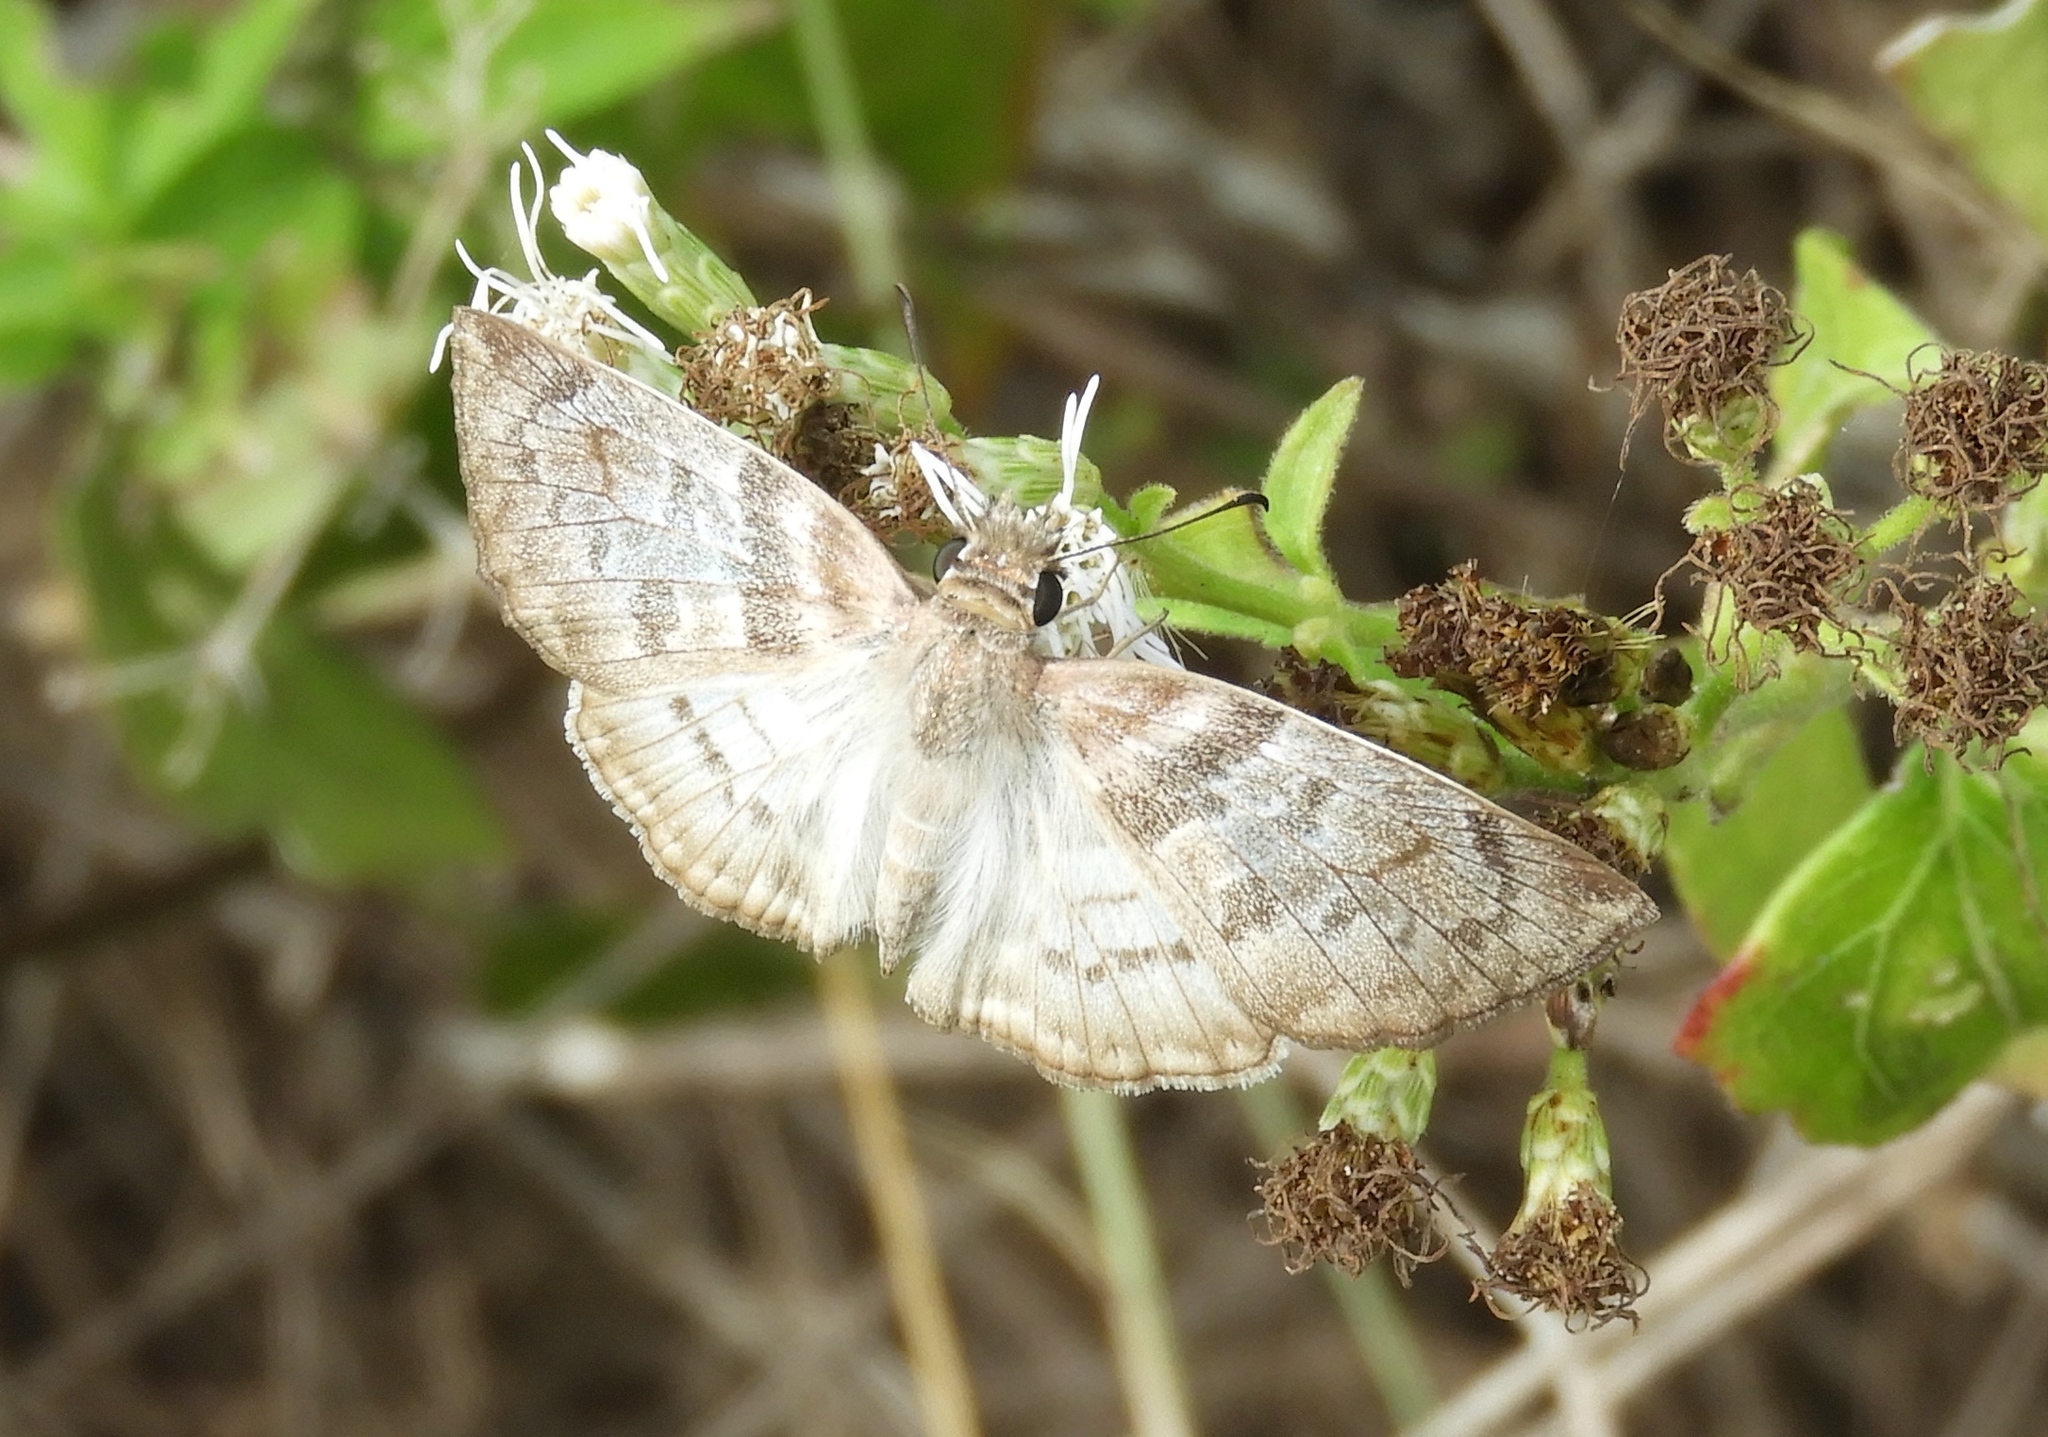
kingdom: Animalia
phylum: Arthropoda
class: Insecta
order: Lepidoptera
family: Hesperiidae
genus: Mylon
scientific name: Mylon pelopidas
